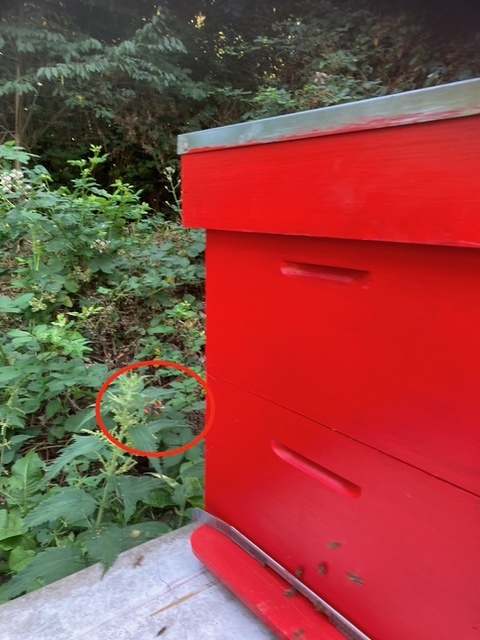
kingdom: Animalia
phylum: Arthropoda
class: Insecta
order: Hymenoptera
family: Vespidae
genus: Vespa
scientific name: Vespa velutina
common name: Asian hornet
